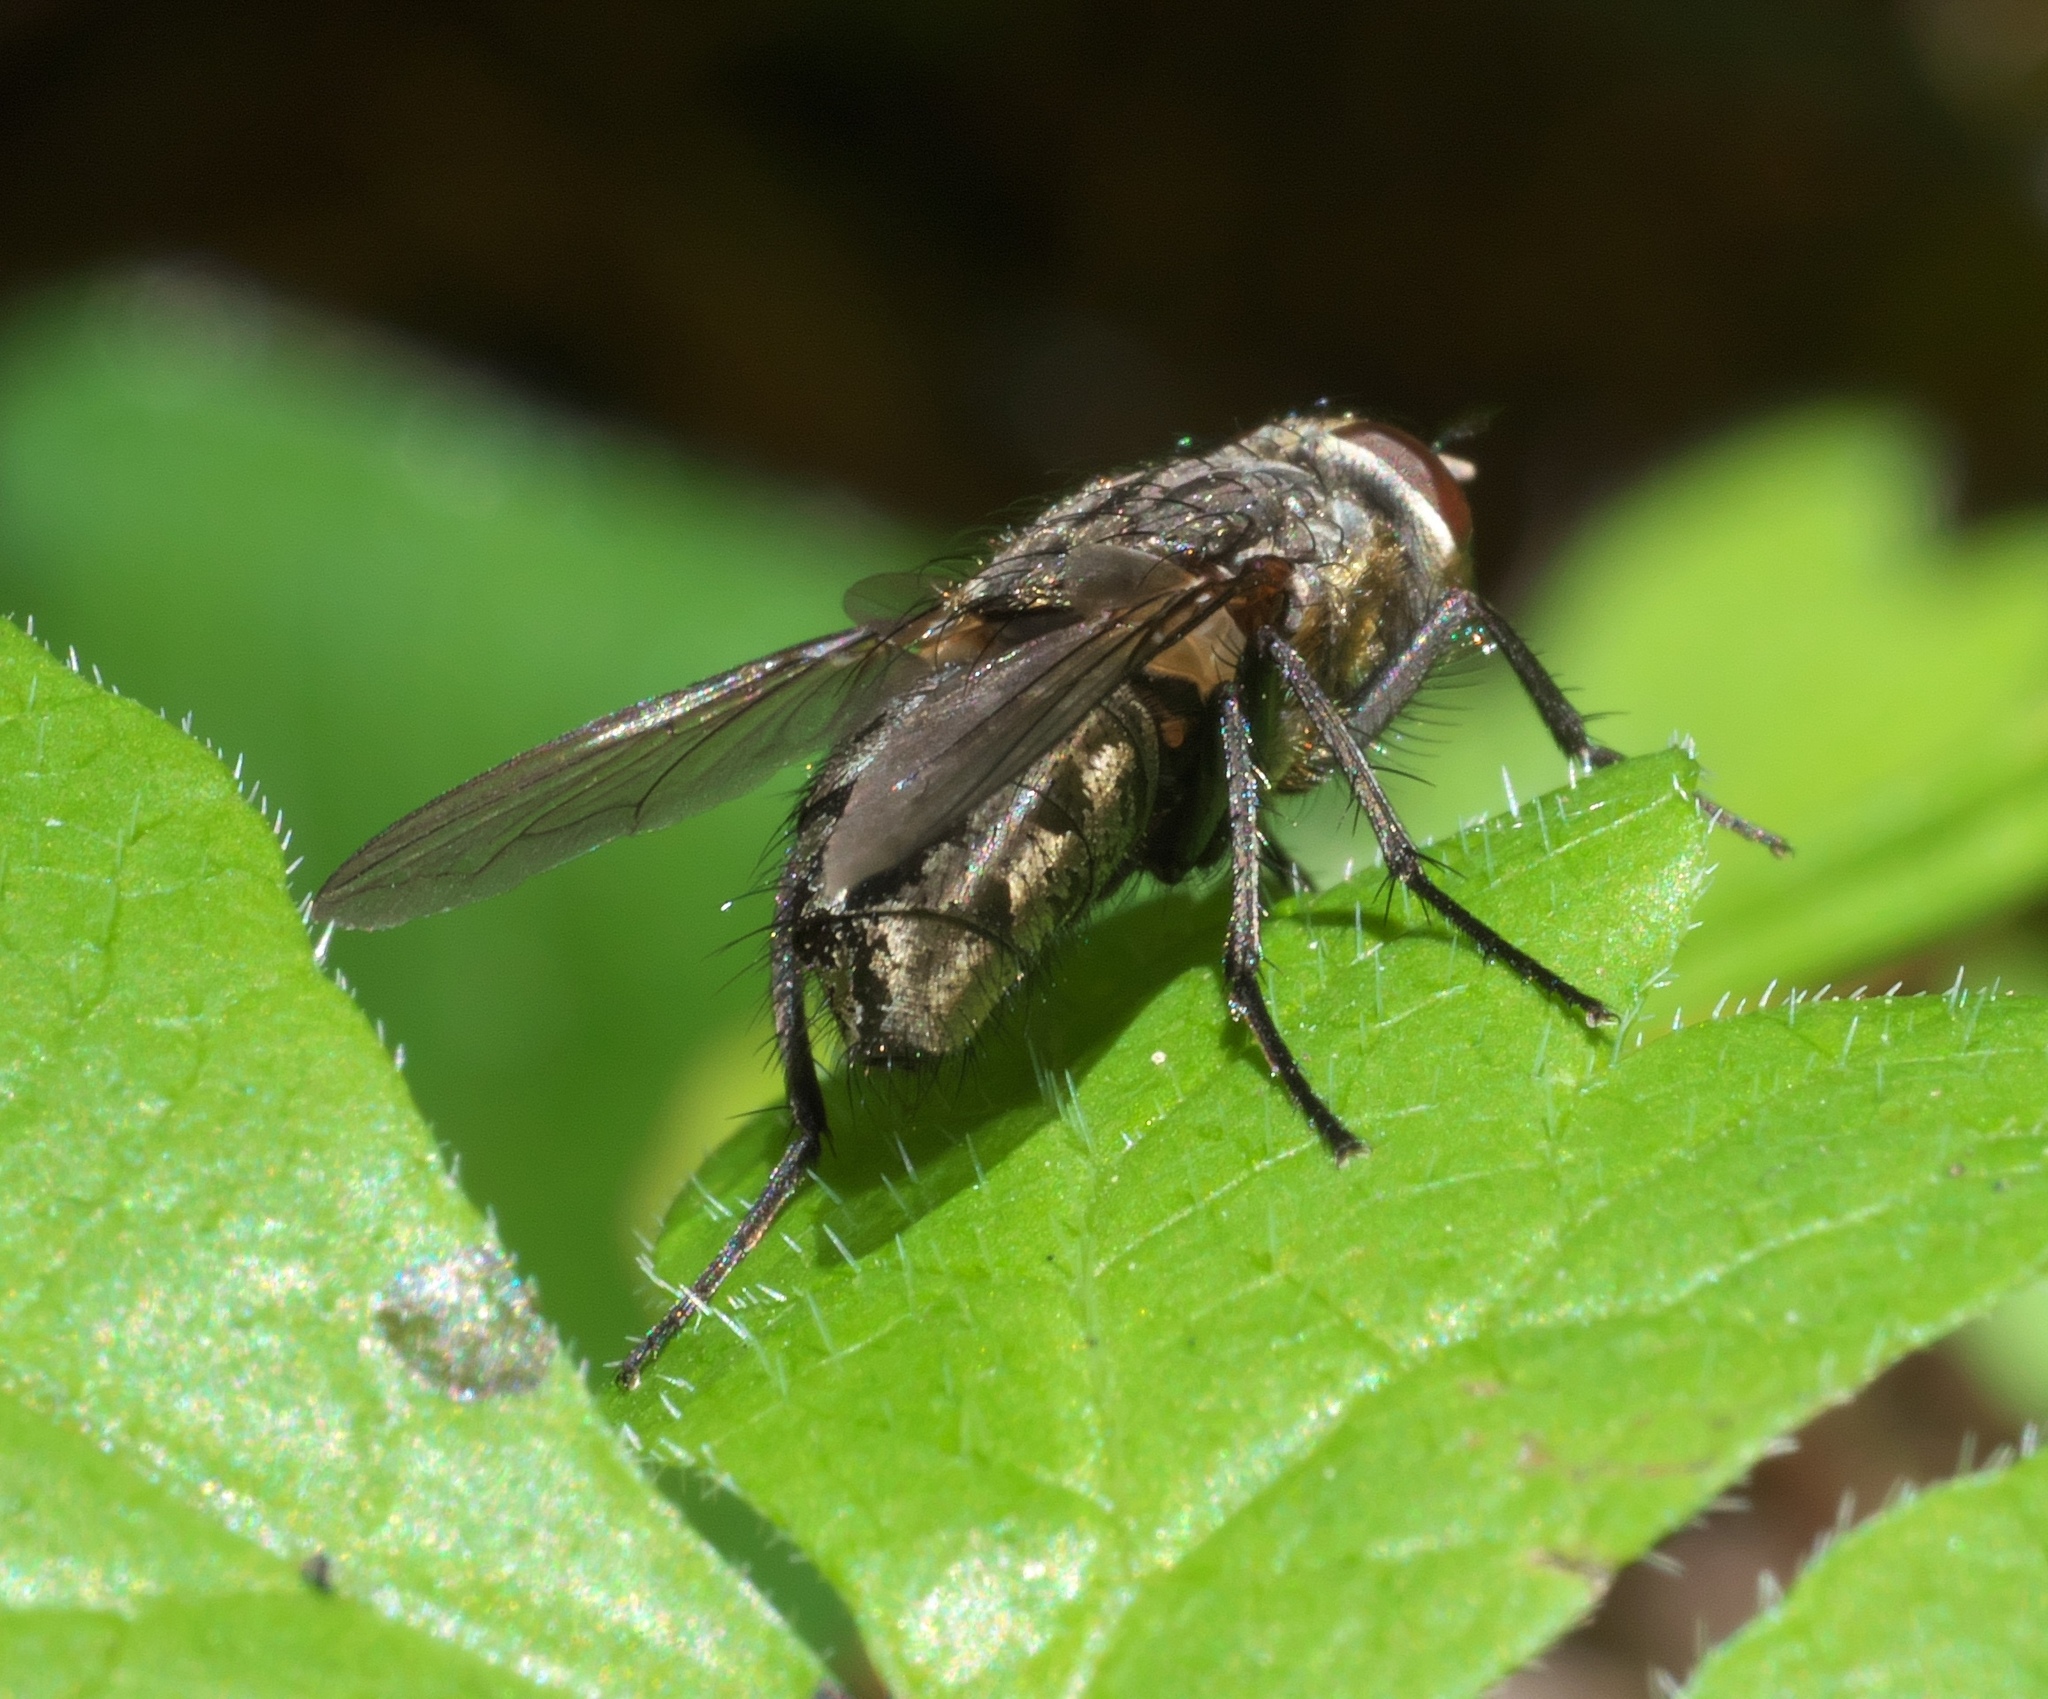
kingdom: Animalia
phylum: Arthropoda
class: Insecta
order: Diptera
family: Polleniidae
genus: Pollenia
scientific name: Pollenia
